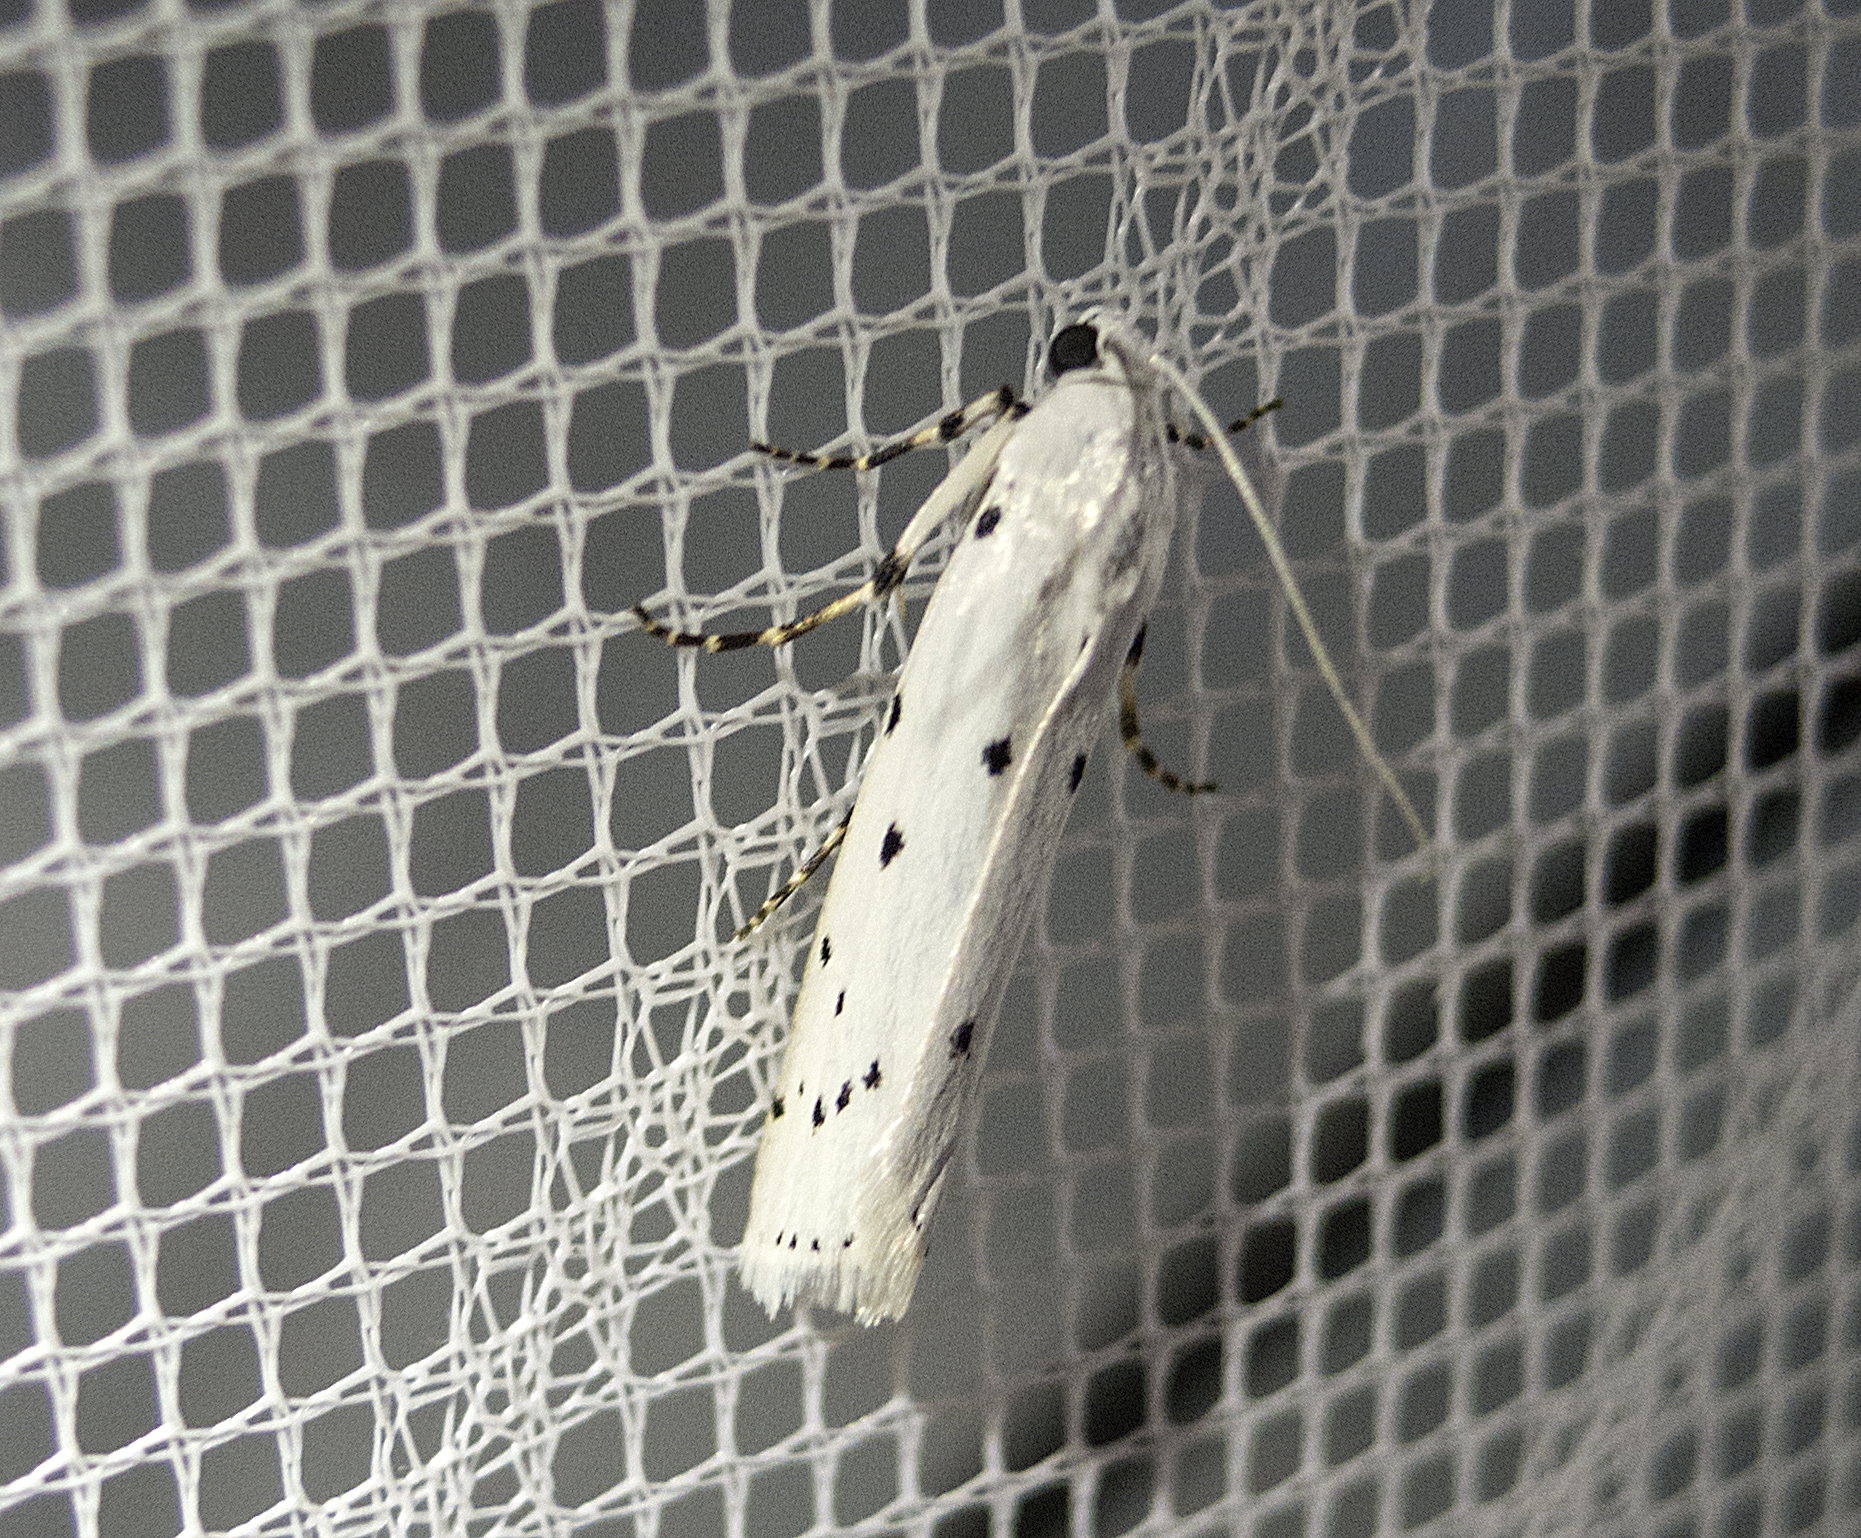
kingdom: Animalia
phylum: Arthropoda
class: Insecta
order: Lepidoptera
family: Pyralidae
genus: Myelois
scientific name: Myelois circumvoluta
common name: Thistle ermine
